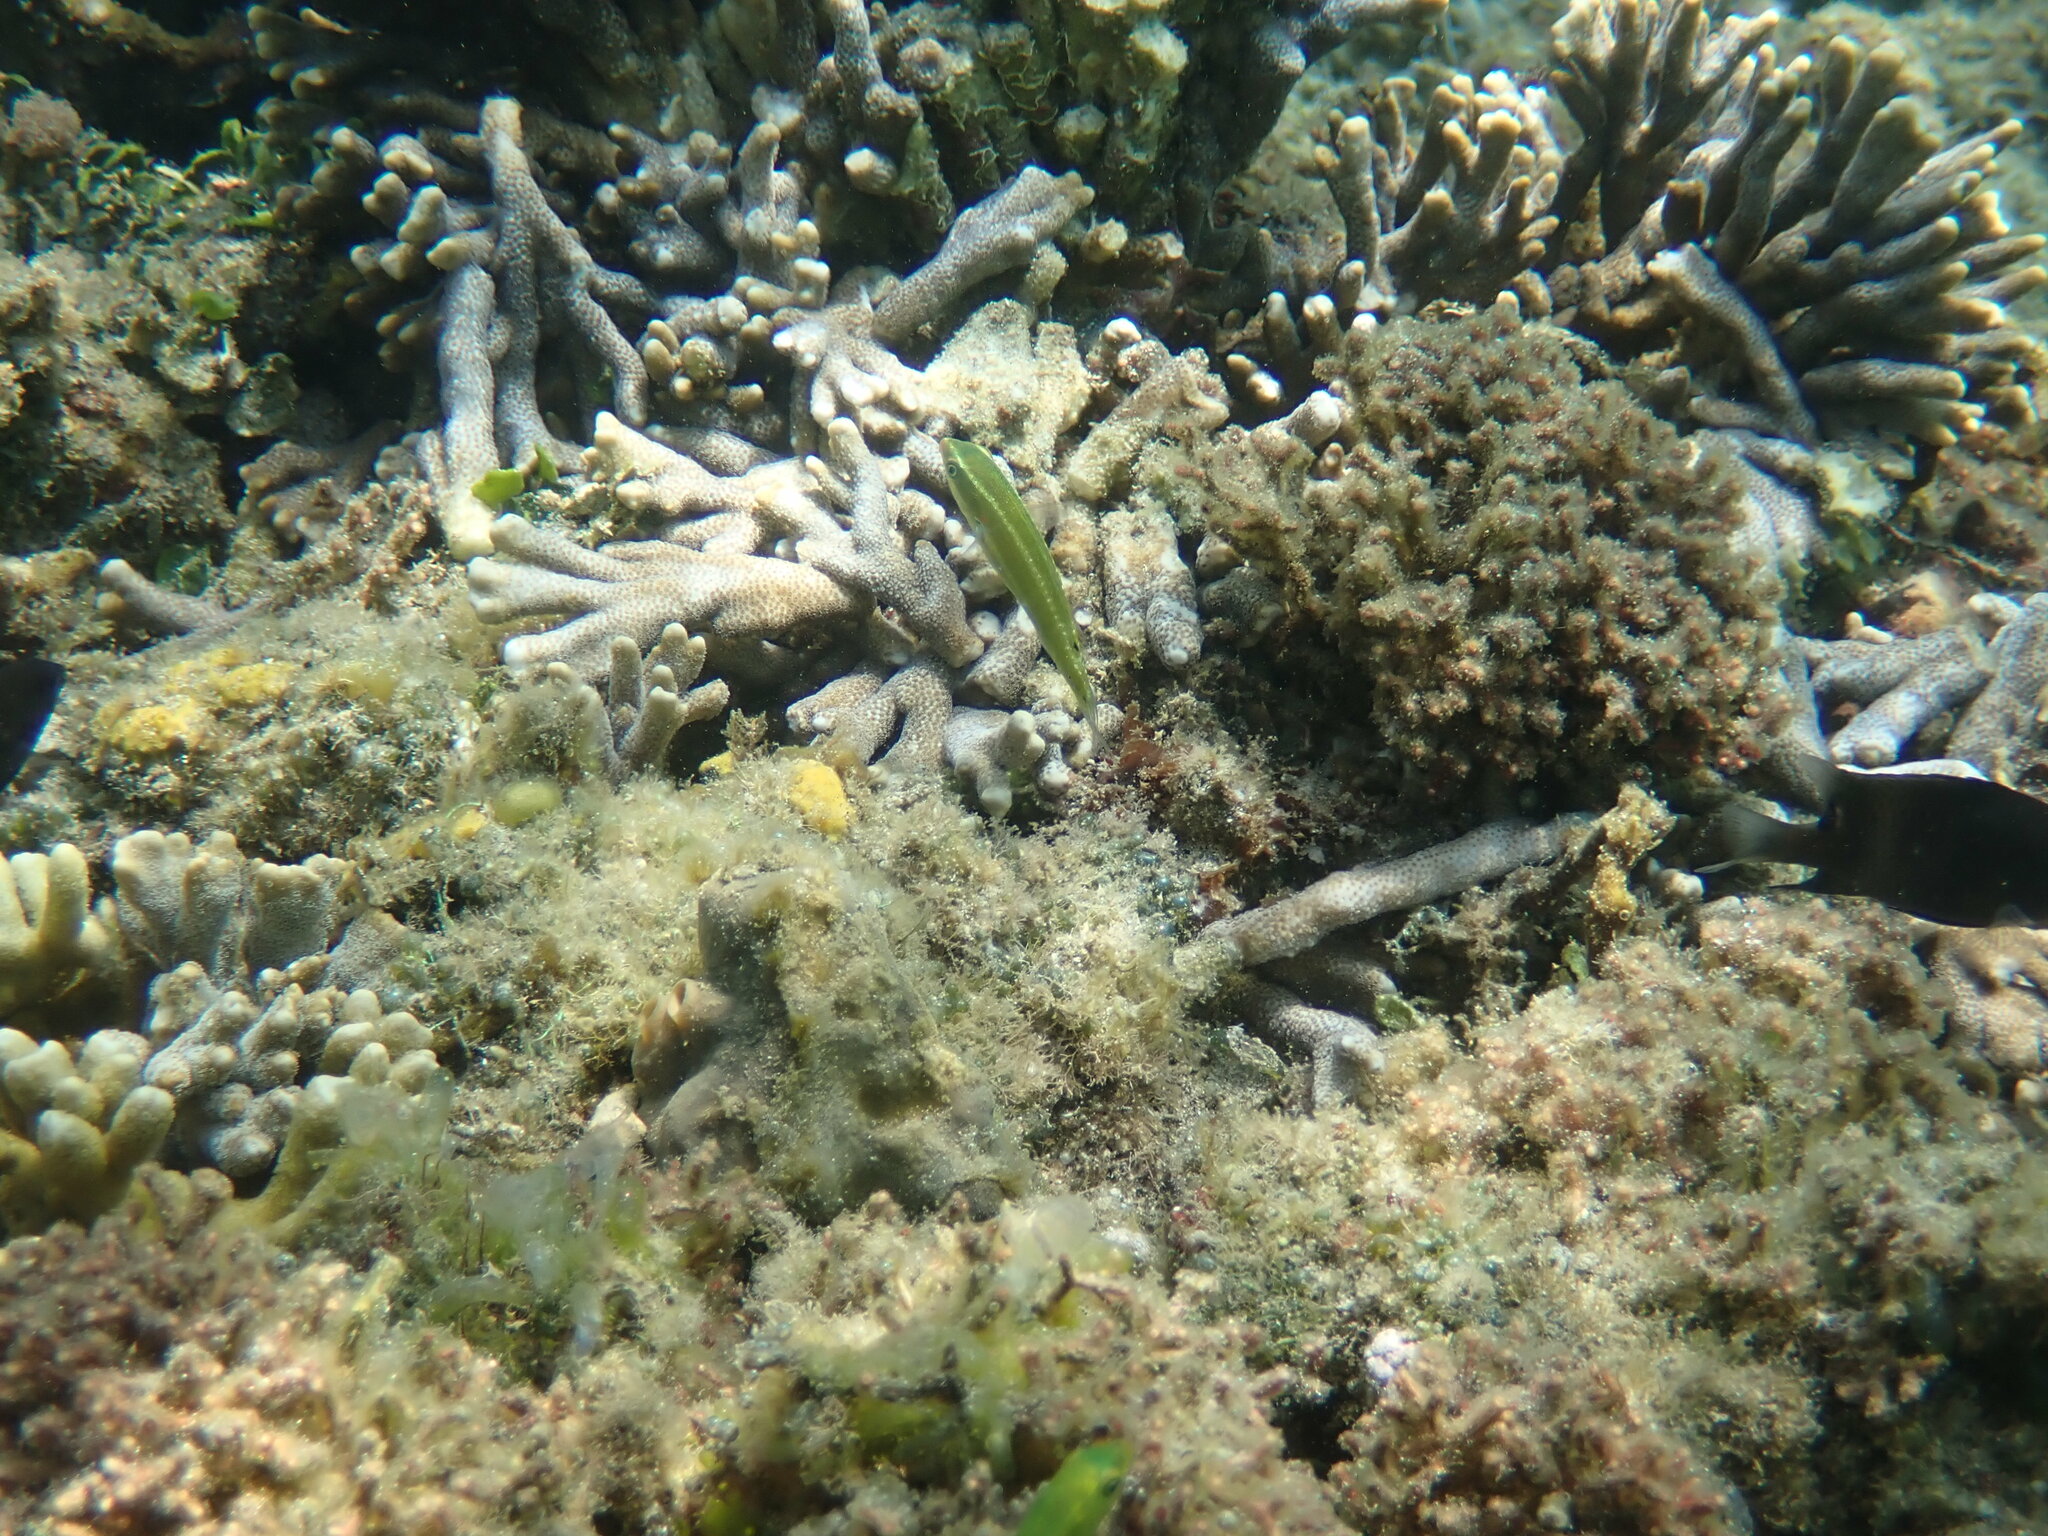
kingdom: Animalia
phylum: Chordata
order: Perciformes
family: Labridae
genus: Stethojulis
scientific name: Stethojulis bandanensis
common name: Red shoulder wrasse
